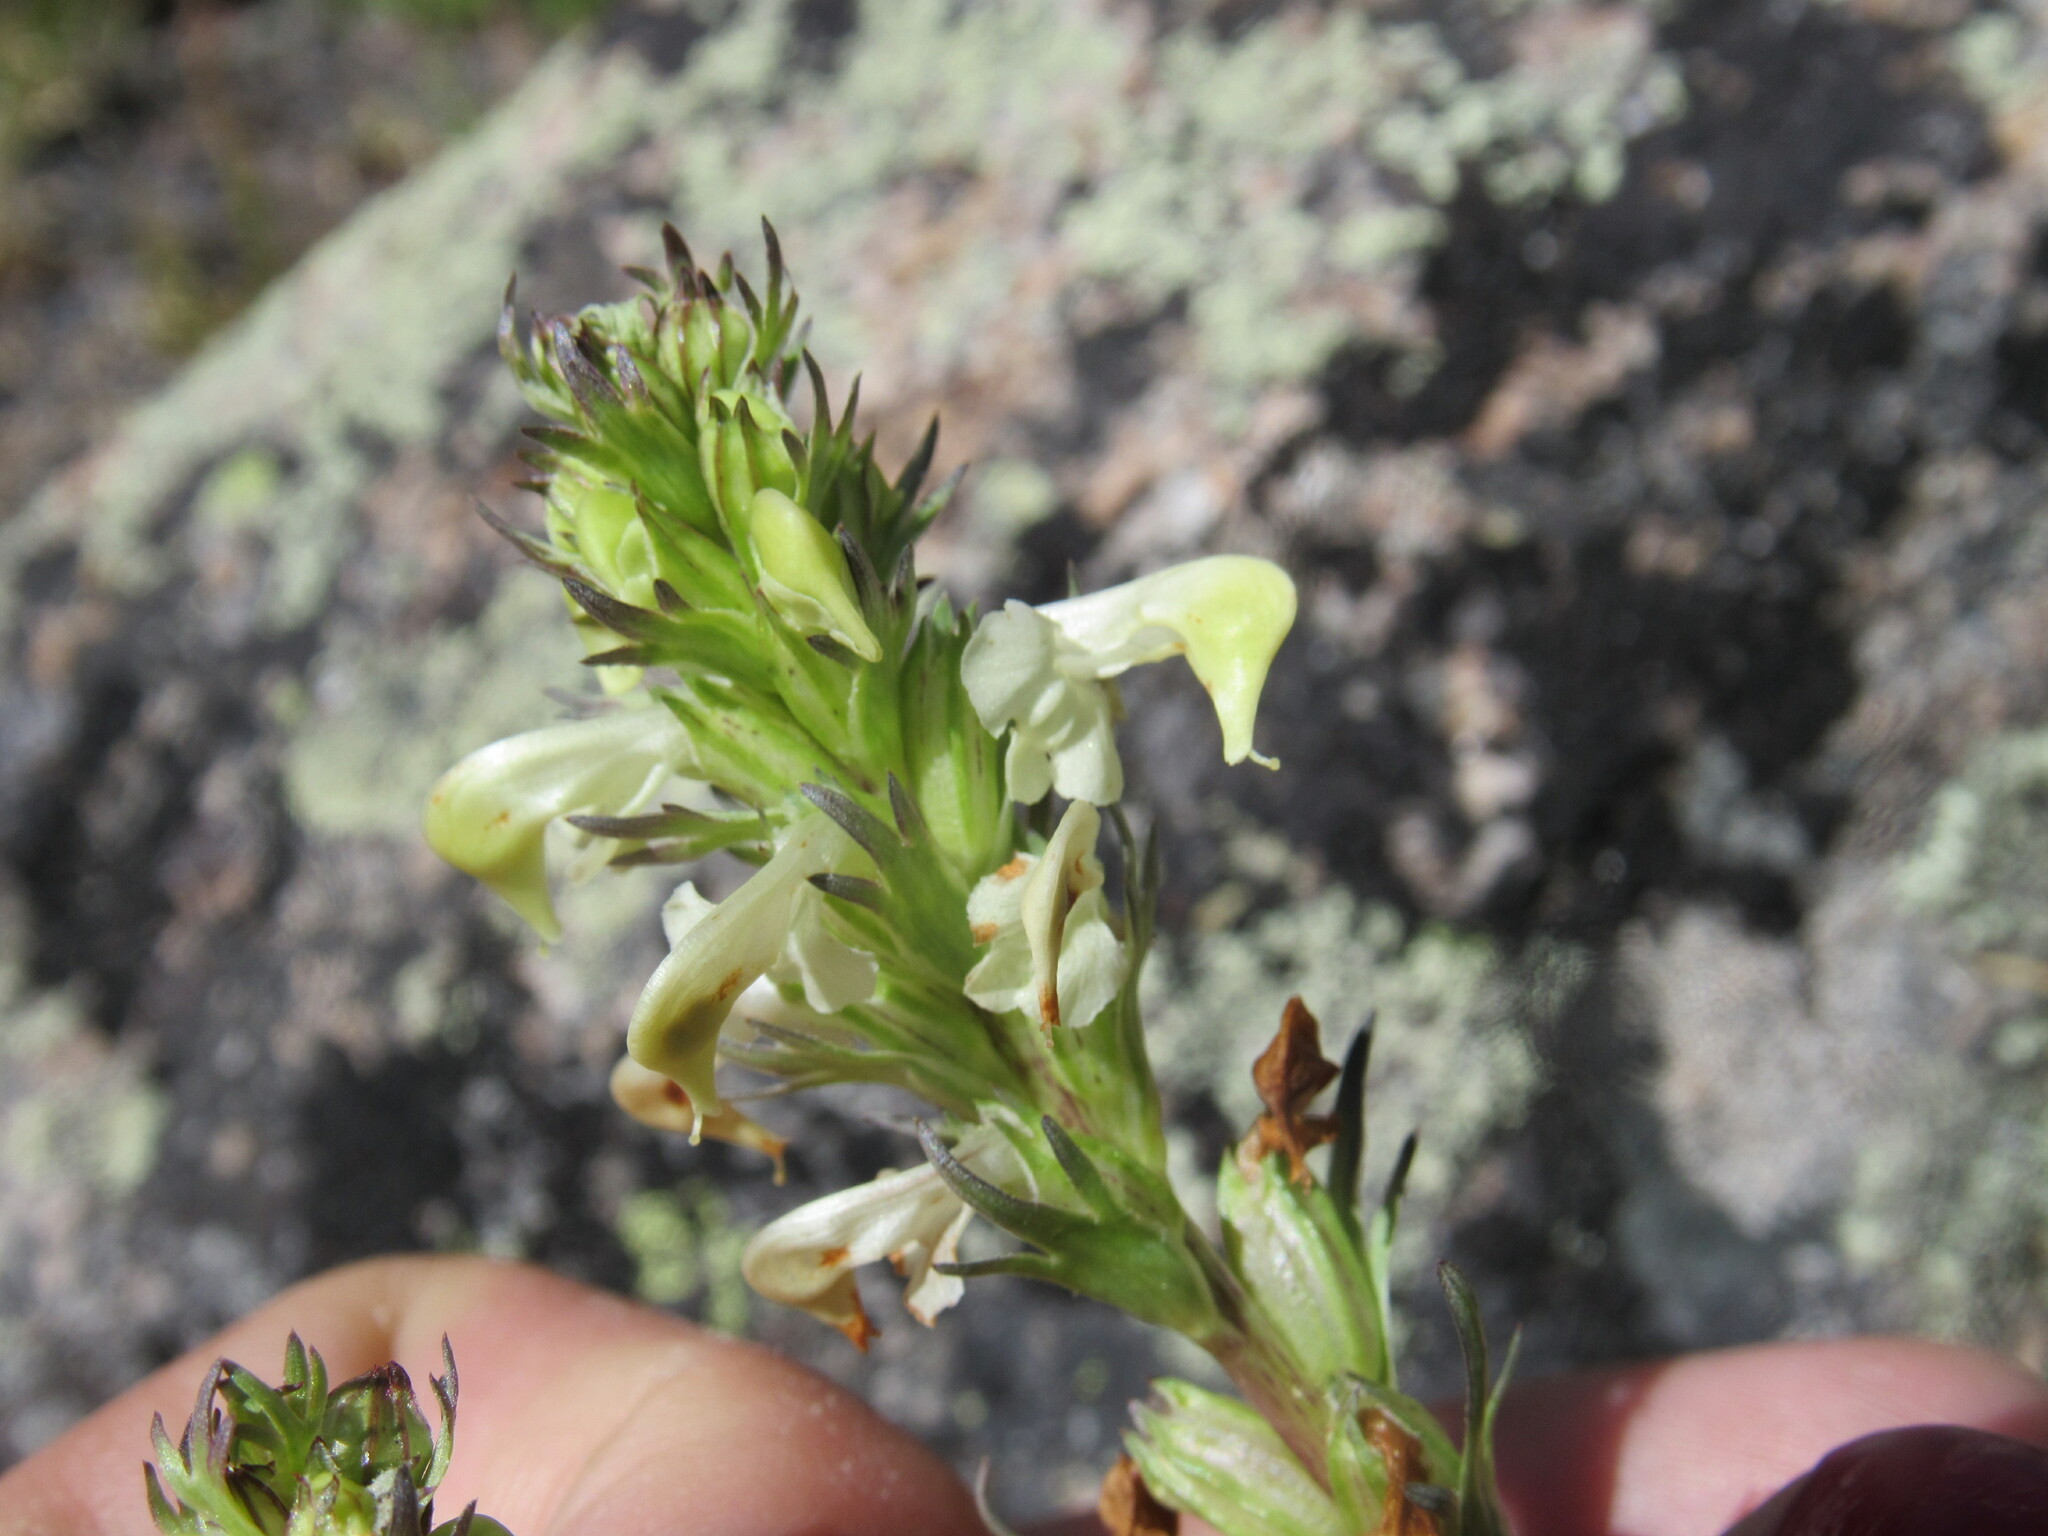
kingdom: Plantae
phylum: Tracheophyta
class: Magnoliopsida
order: Lamiales
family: Orobanchaceae
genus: Pedicularis
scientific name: Pedicularis parryi
